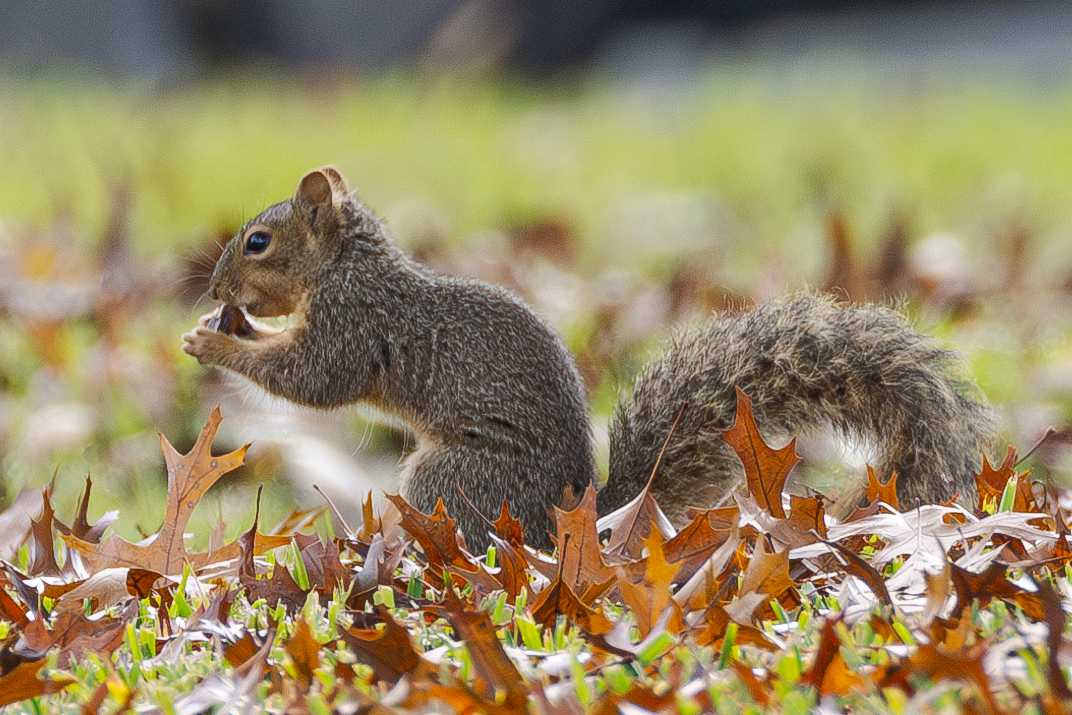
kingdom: Animalia
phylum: Chordata
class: Mammalia
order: Rodentia
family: Sciuridae
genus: Sciurus
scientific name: Sciurus niger
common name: Fox squirrel
